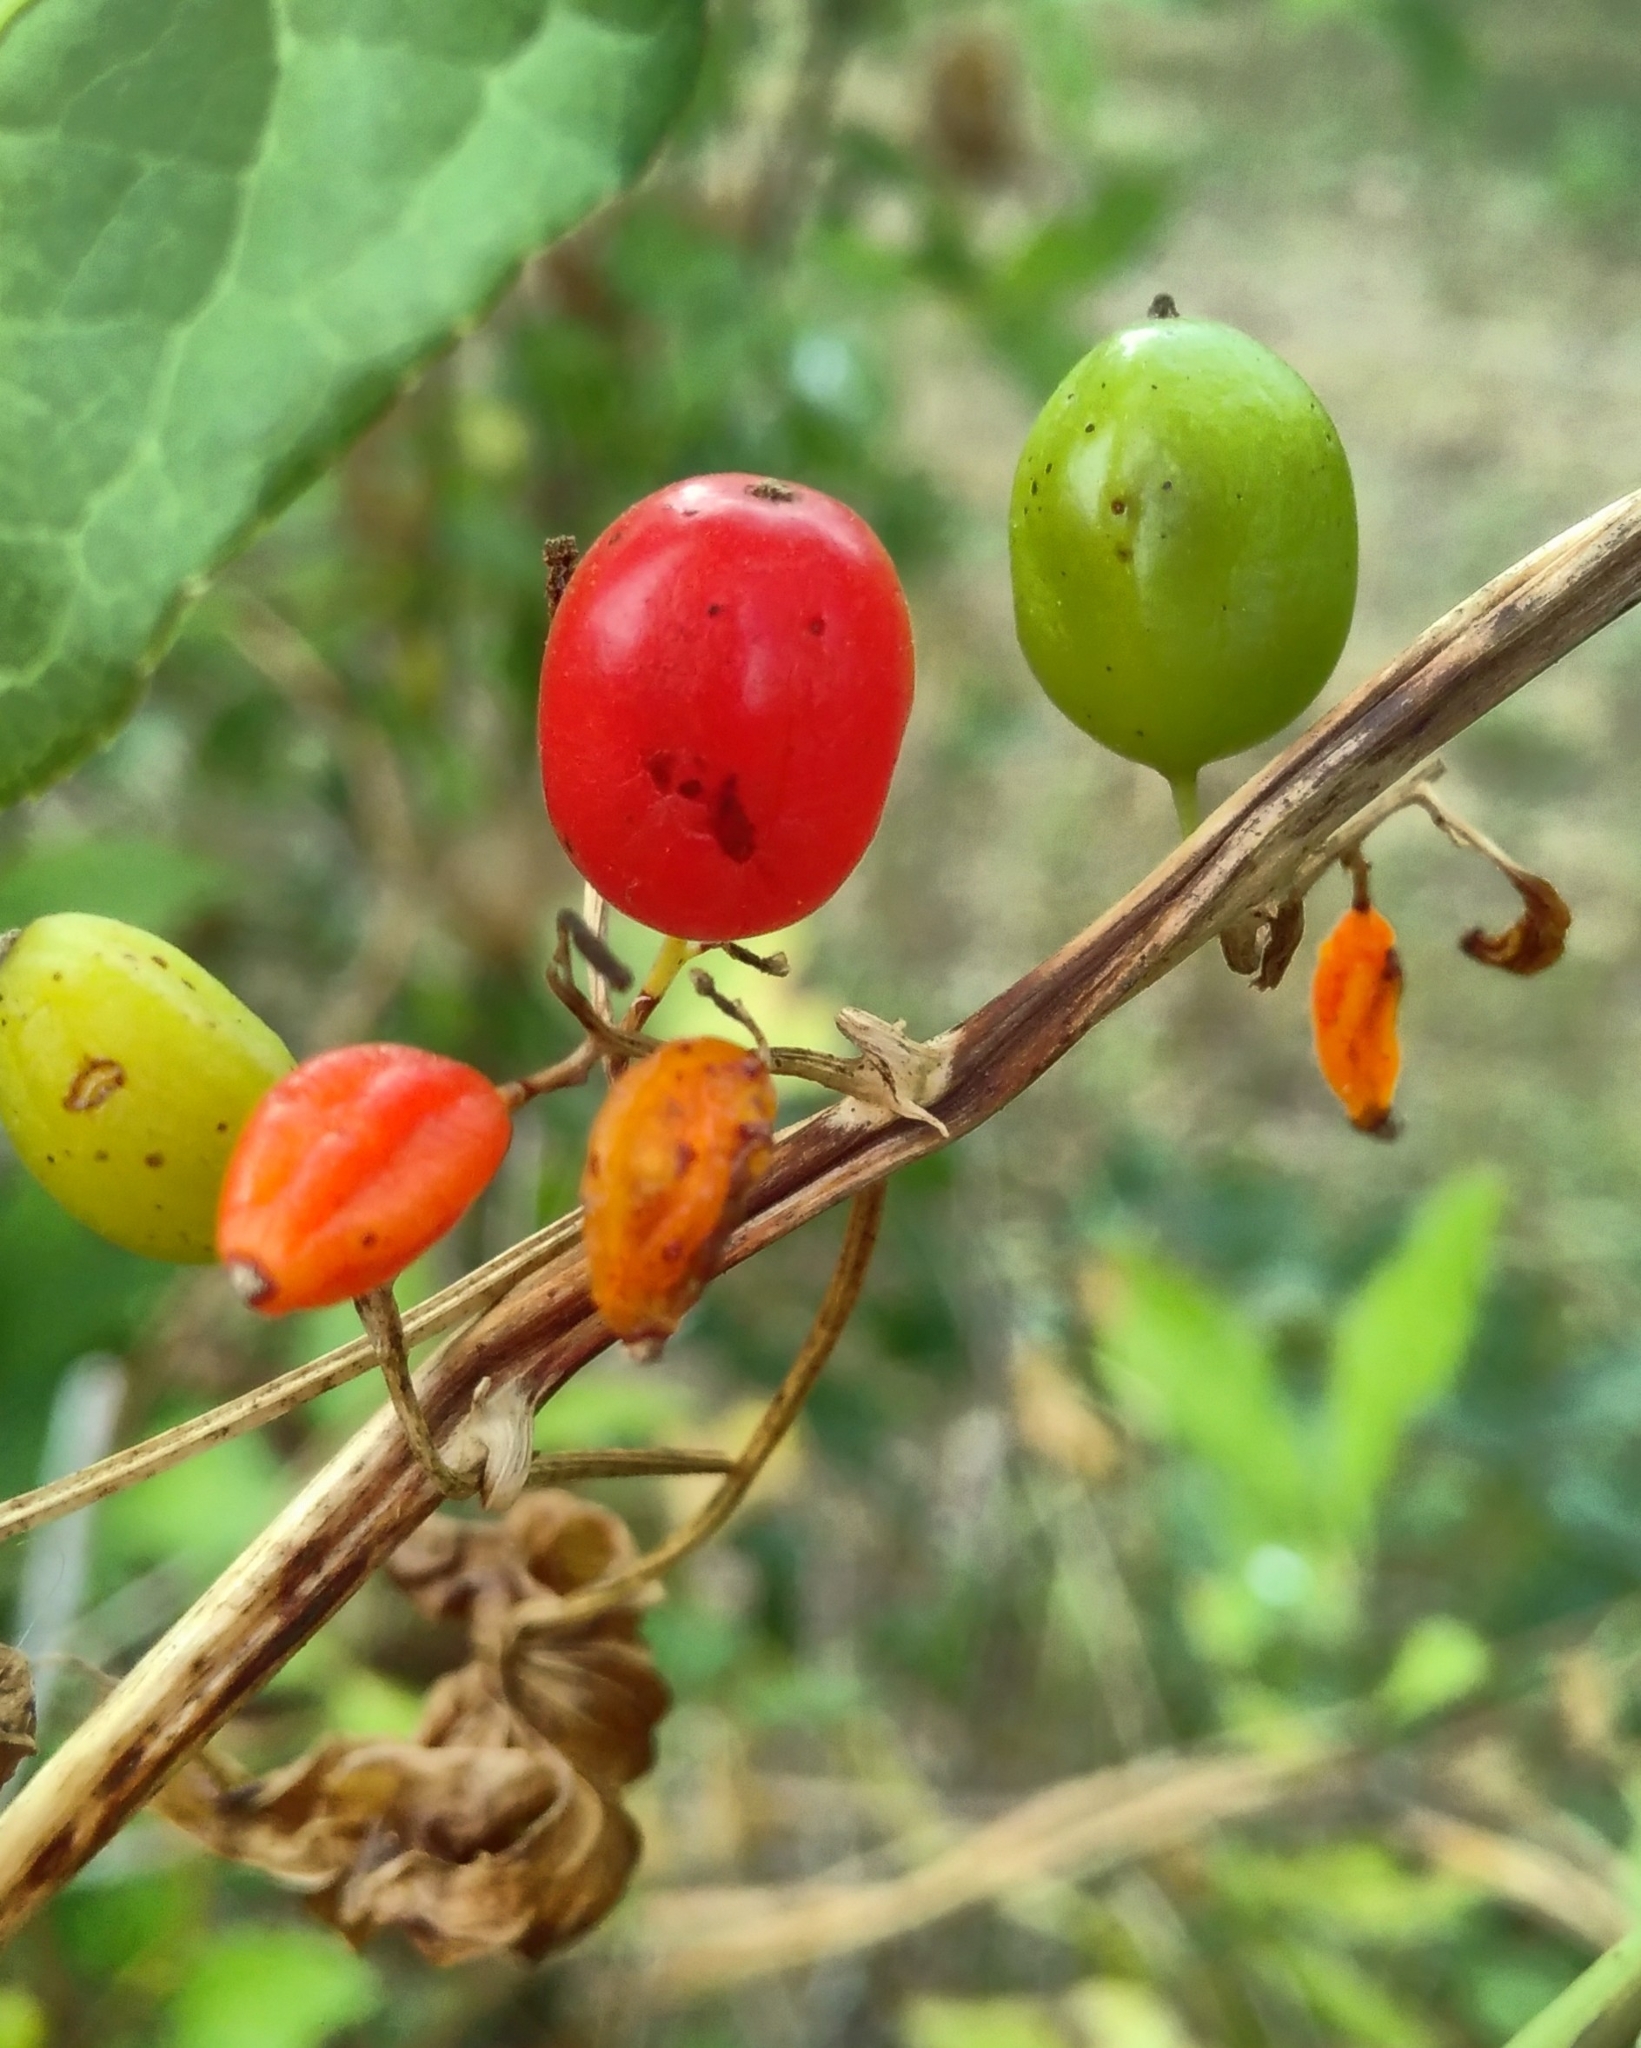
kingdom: Plantae
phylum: Tracheophyta
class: Liliopsida
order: Dioscoreales
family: Dioscoreaceae
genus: Dioscorea
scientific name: Dioscorea communis
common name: Black-bindweed
